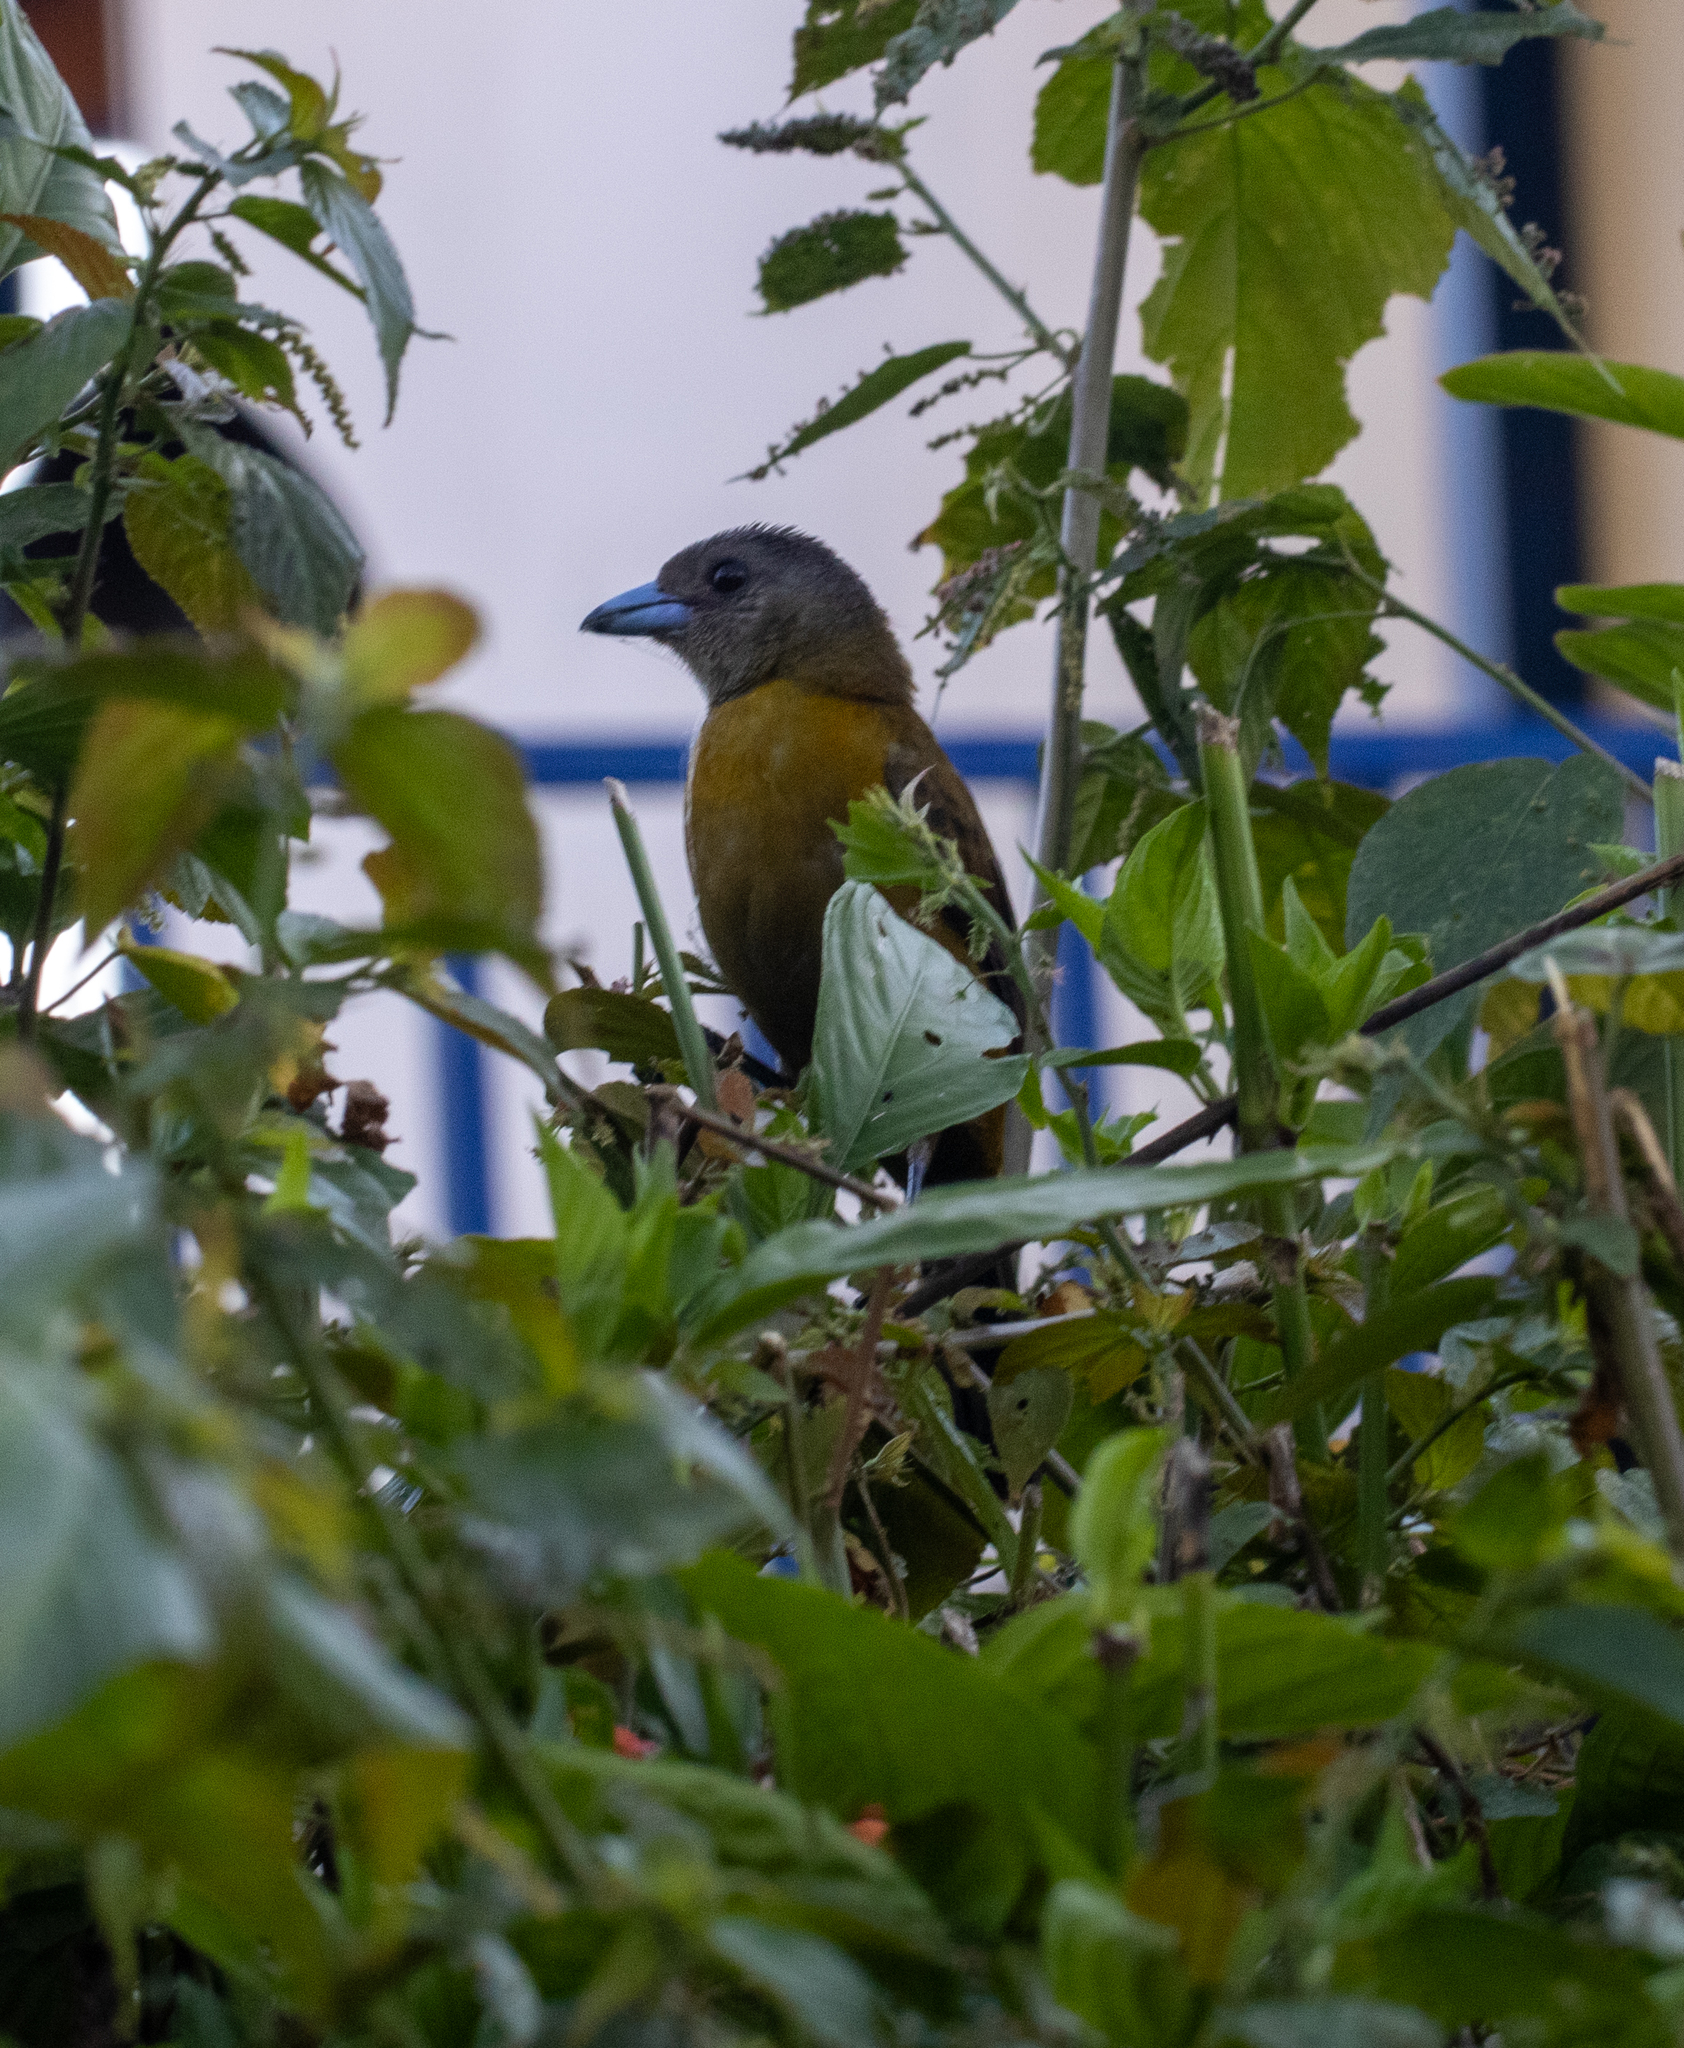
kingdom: Animalia
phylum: Chordata
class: Aves
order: Passeriformes
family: Thraupidae
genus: Ramphocelus
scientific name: Ramphocelus passerinii
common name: Passerini's tanager
